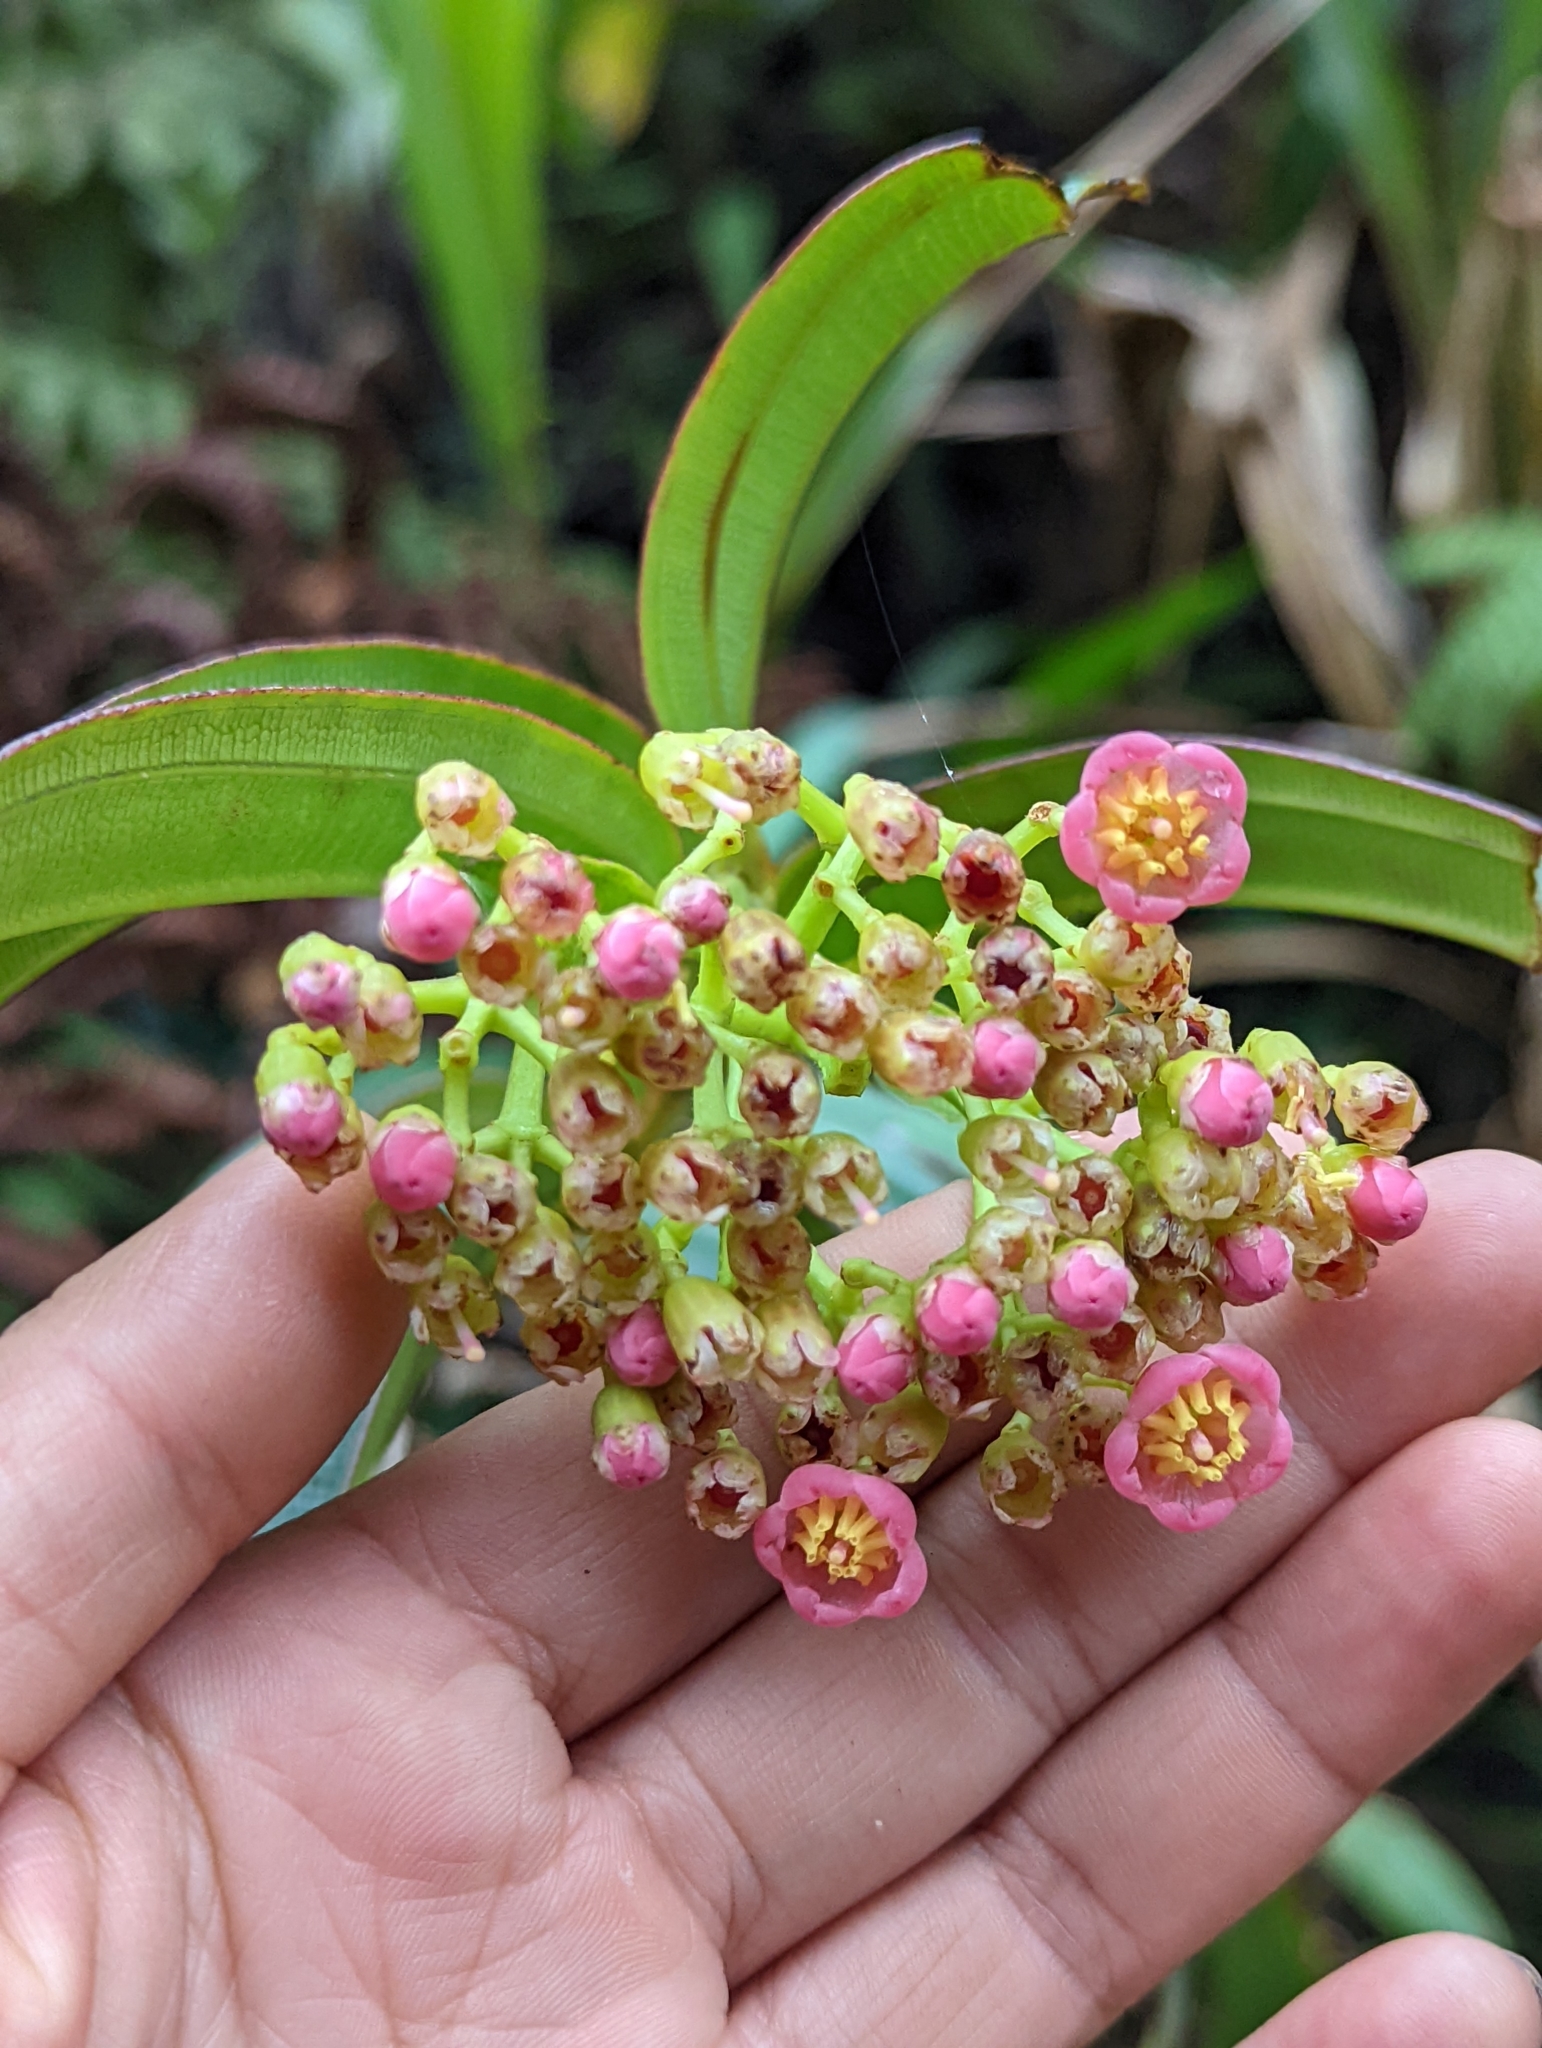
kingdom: Plantae
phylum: Tracheophyta
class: Magnoliopsida
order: Myrtales
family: Melastomataceae
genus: Miconia
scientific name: Miconia micayana
